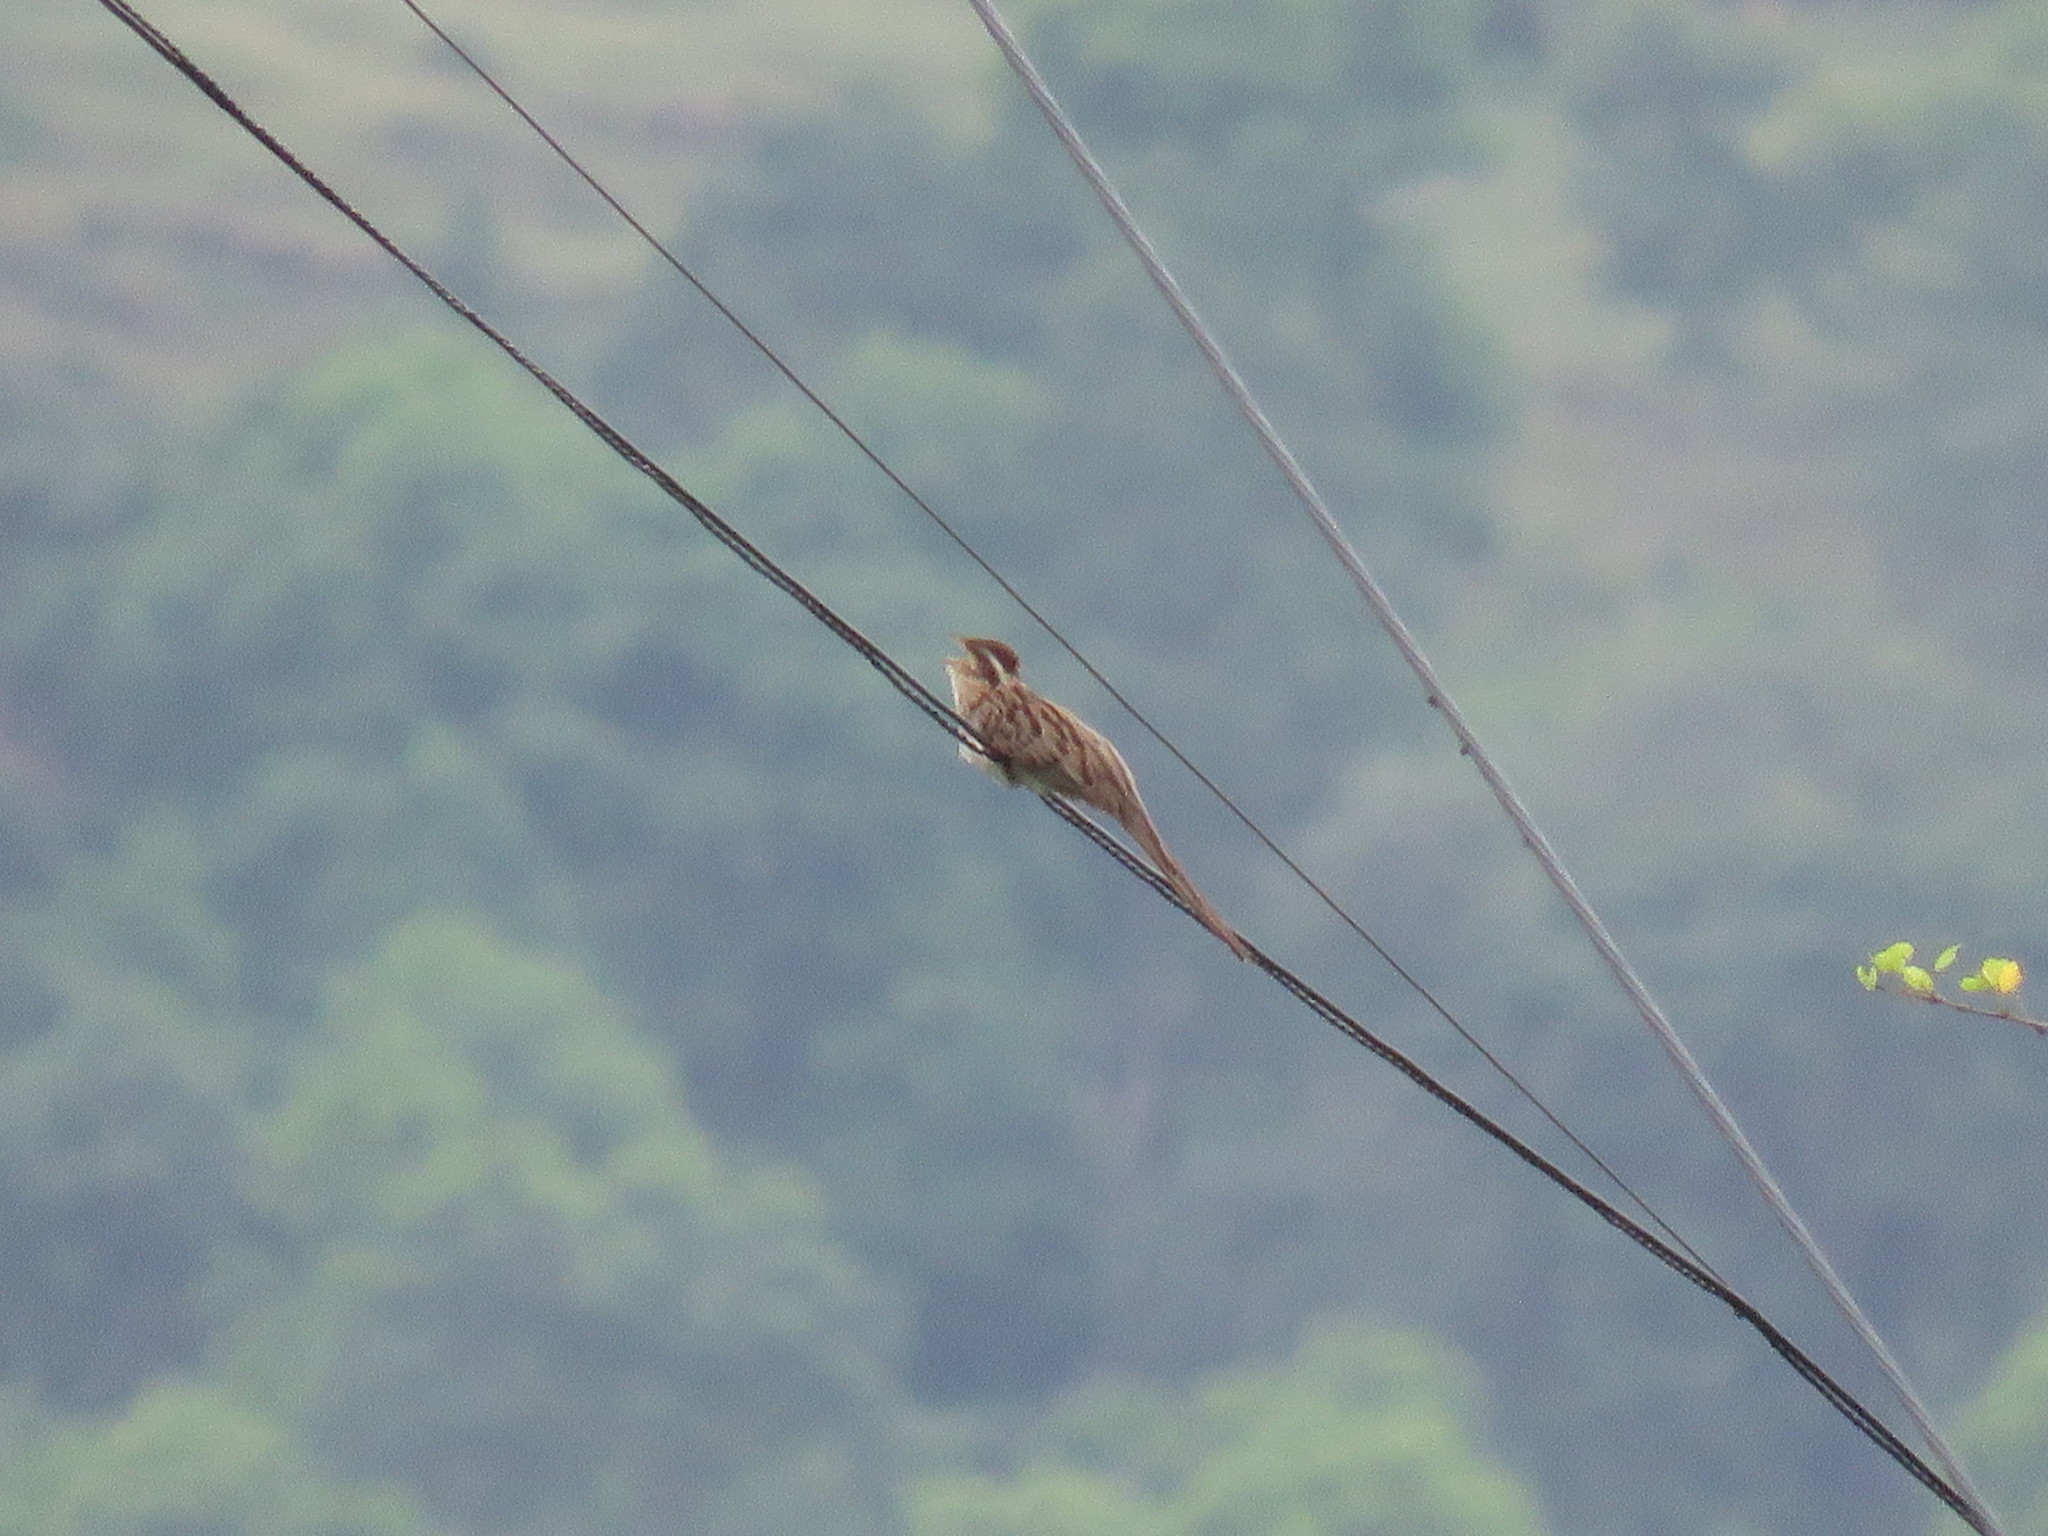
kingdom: Animalia
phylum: Chordata
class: Aves
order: Cuculiformes
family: Cuculidae
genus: Tapera
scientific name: Tapera naevia
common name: Striped cuckoo
